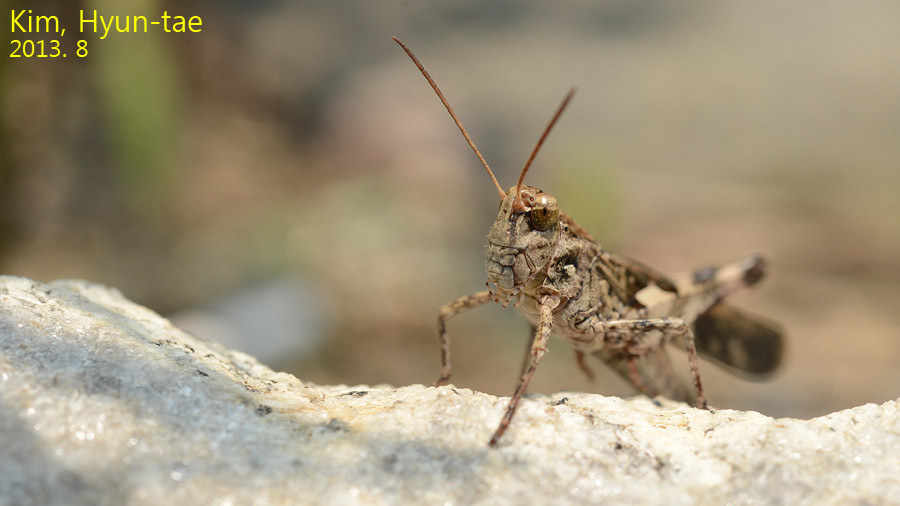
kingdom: Animalia
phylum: Arthropoda
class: Insecta
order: Orthoptera
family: Acrididae
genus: Oedaleus
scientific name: Oedaleus infernalis
